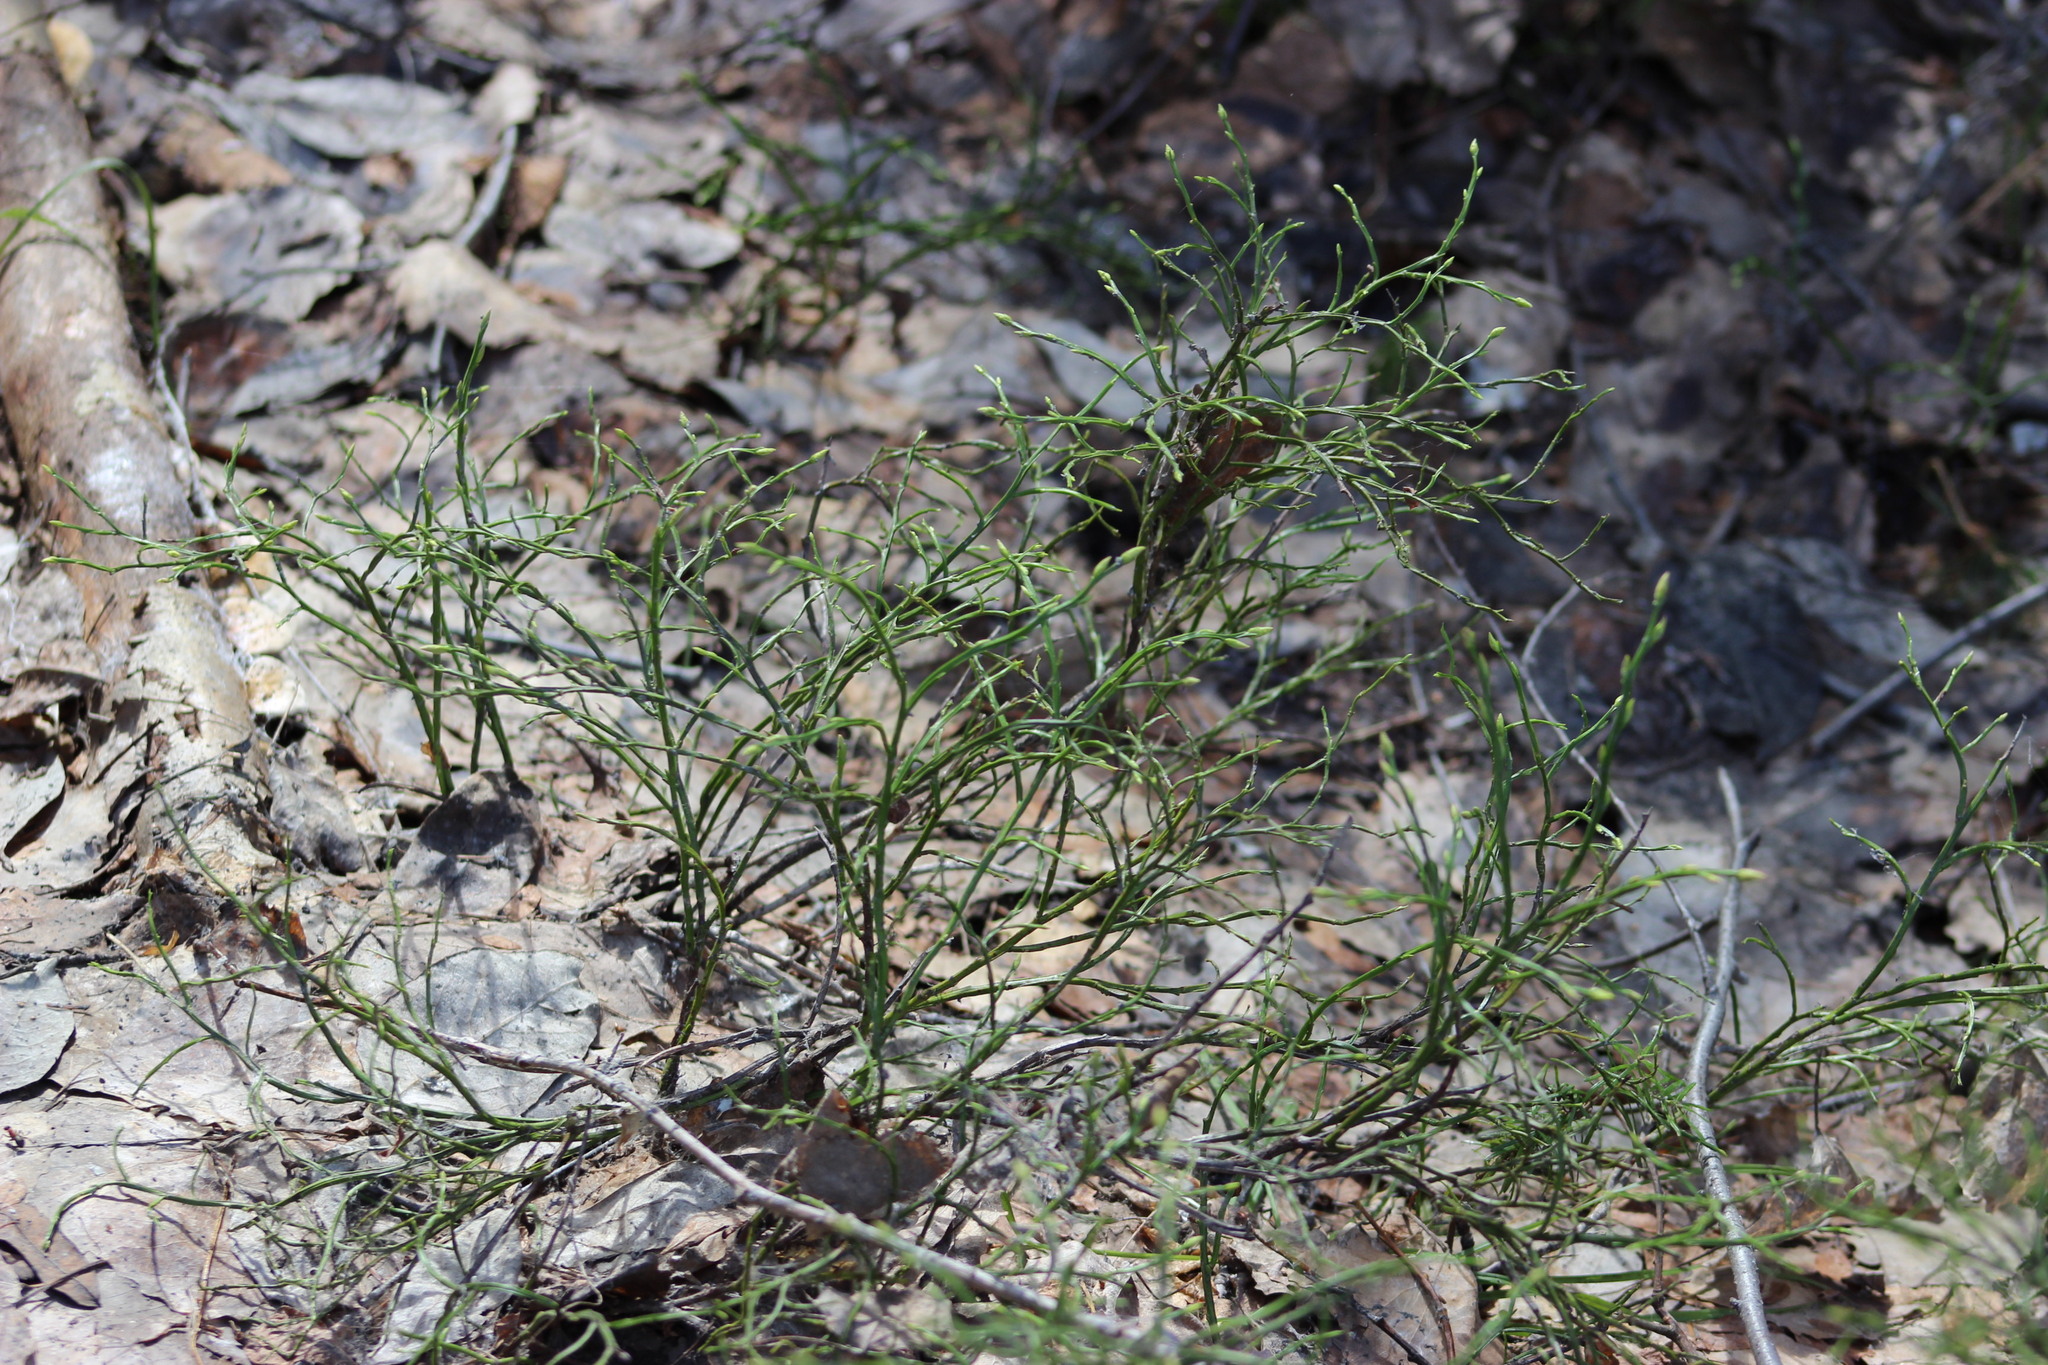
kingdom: Plantae
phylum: Tracheophyta
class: Magnoliopsida
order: Ericales
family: Ericaceae
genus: Vaccinium
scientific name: Vaccinium myrtillus
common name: Bilberry
